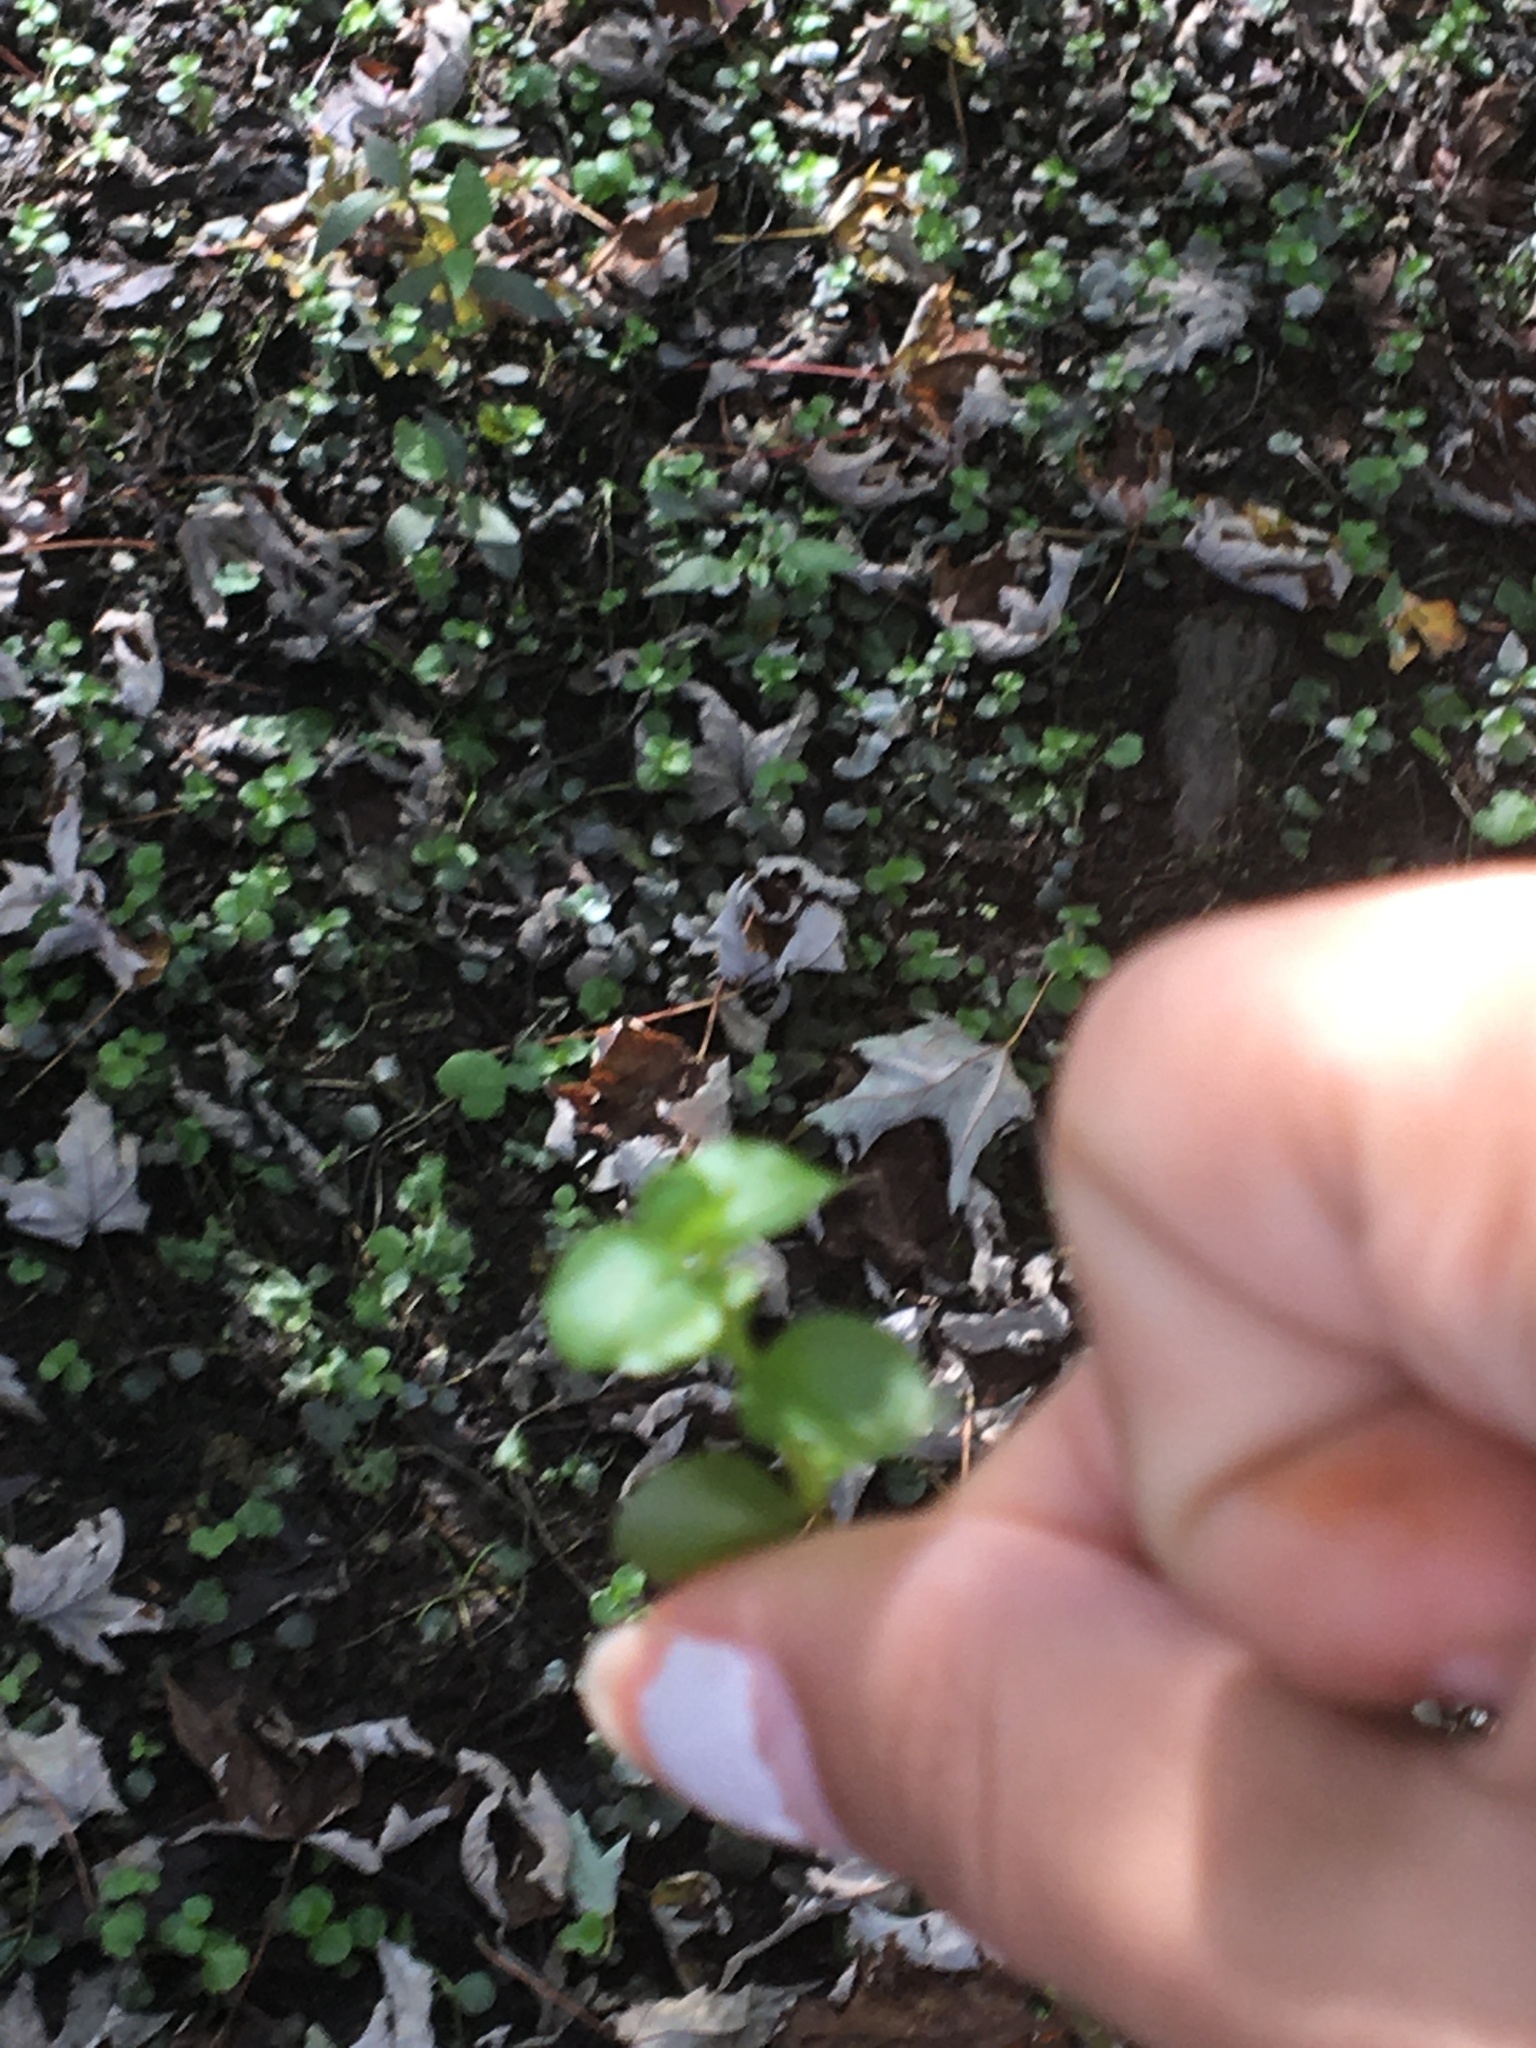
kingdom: Plantae
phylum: Tracheophyta
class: Magnoliopsida
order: Ericales
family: Primulaceae
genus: Lysimachia
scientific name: Lysimachia nummularia
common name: Moneywort
